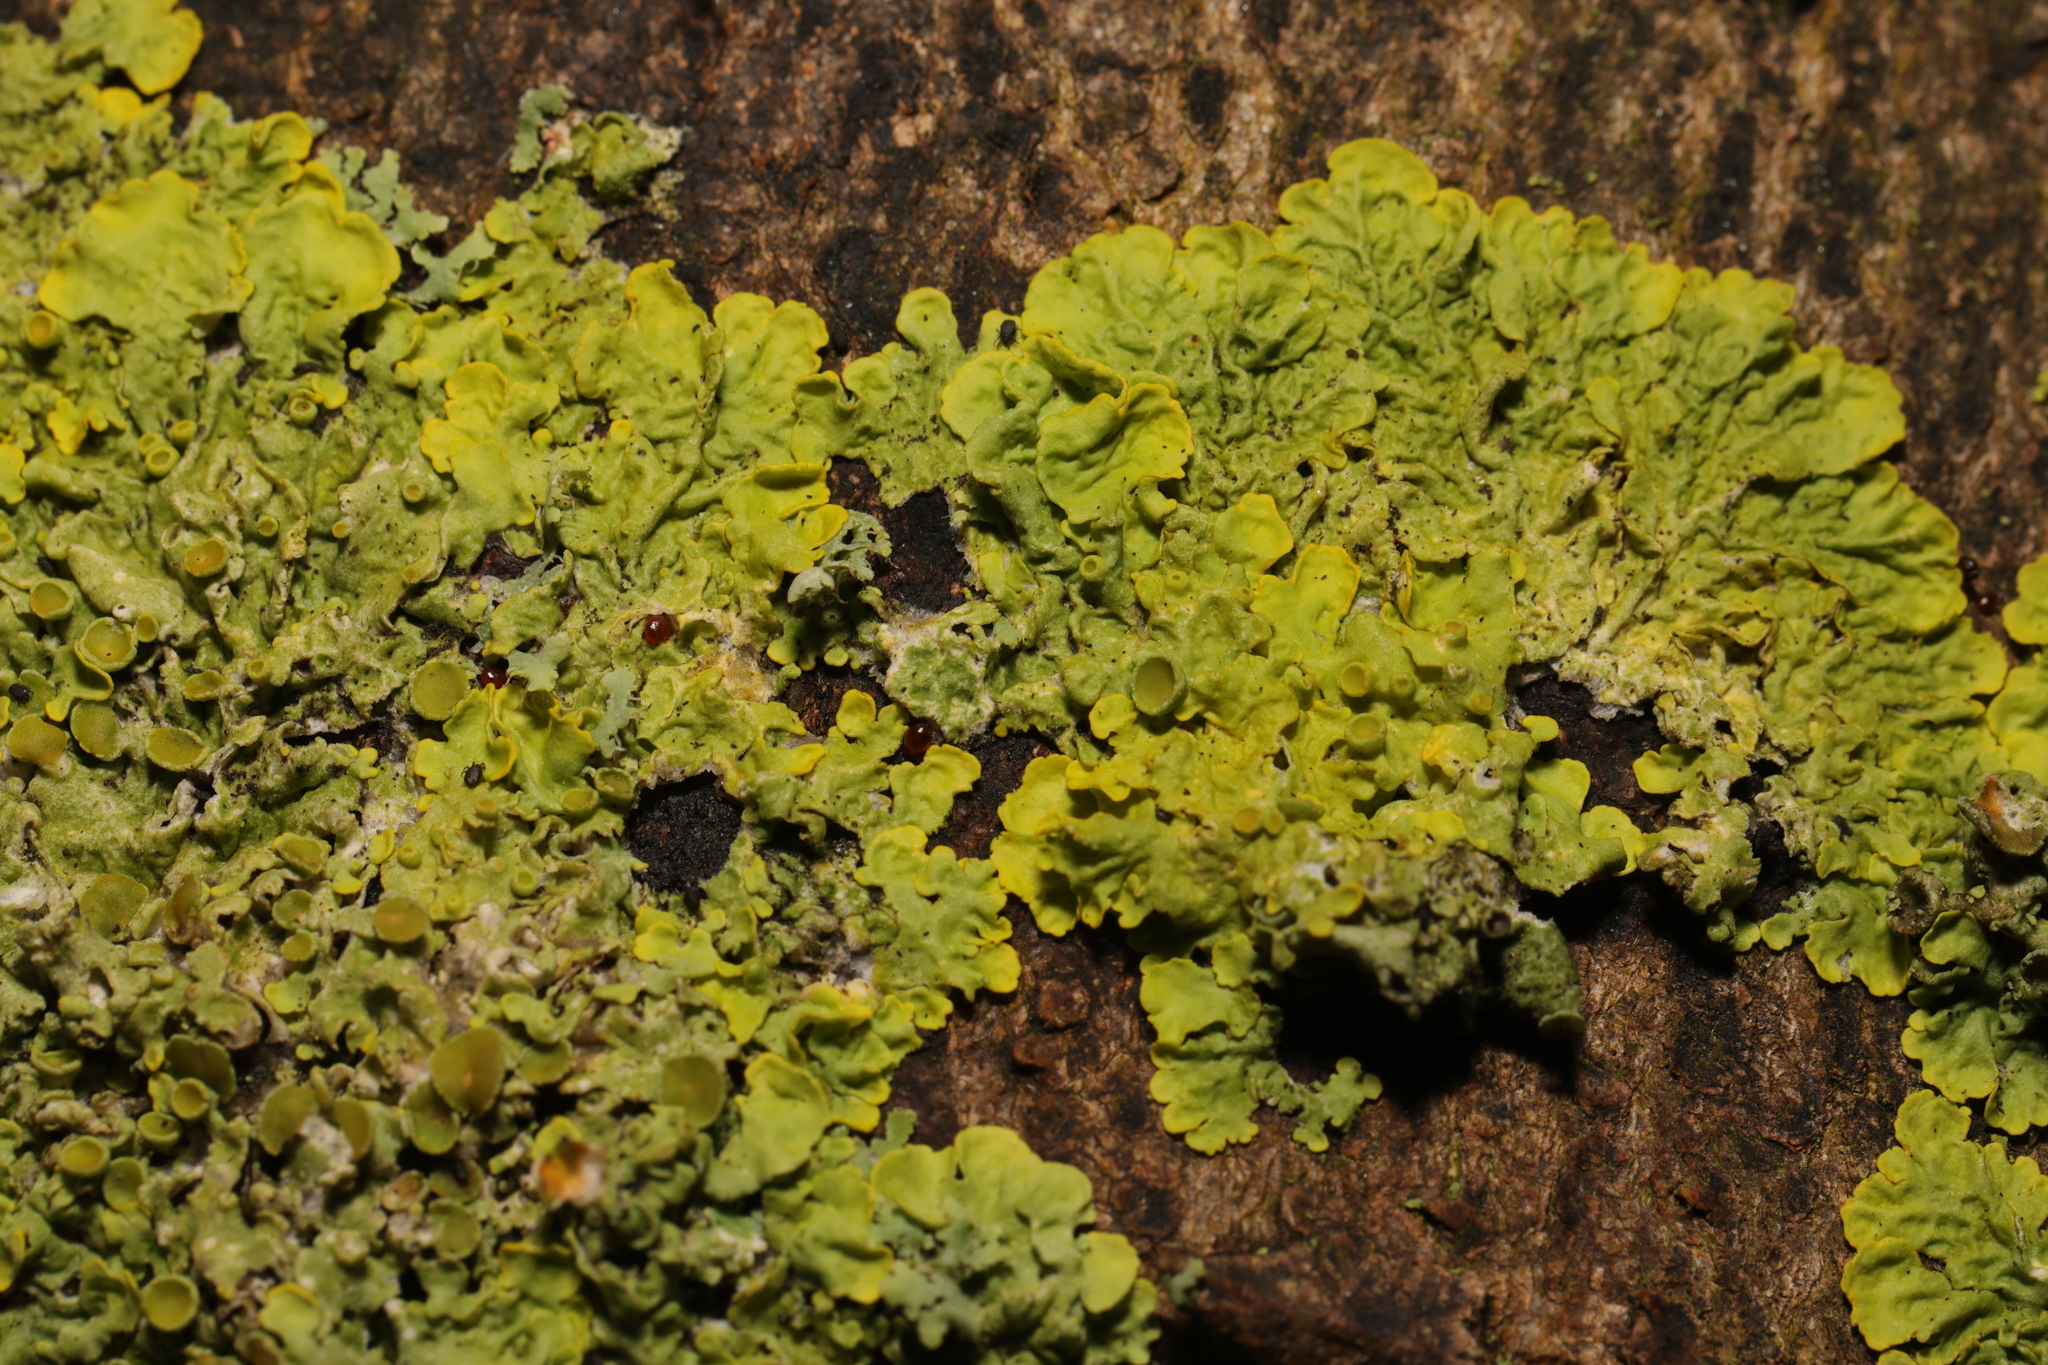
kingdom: Fungi
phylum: Ascomycota
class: Lecanoromycetes
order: Teloschistales
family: Teloschistaceae
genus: Xanthoria
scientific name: Xanthoria parietina
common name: Common orange lichen
